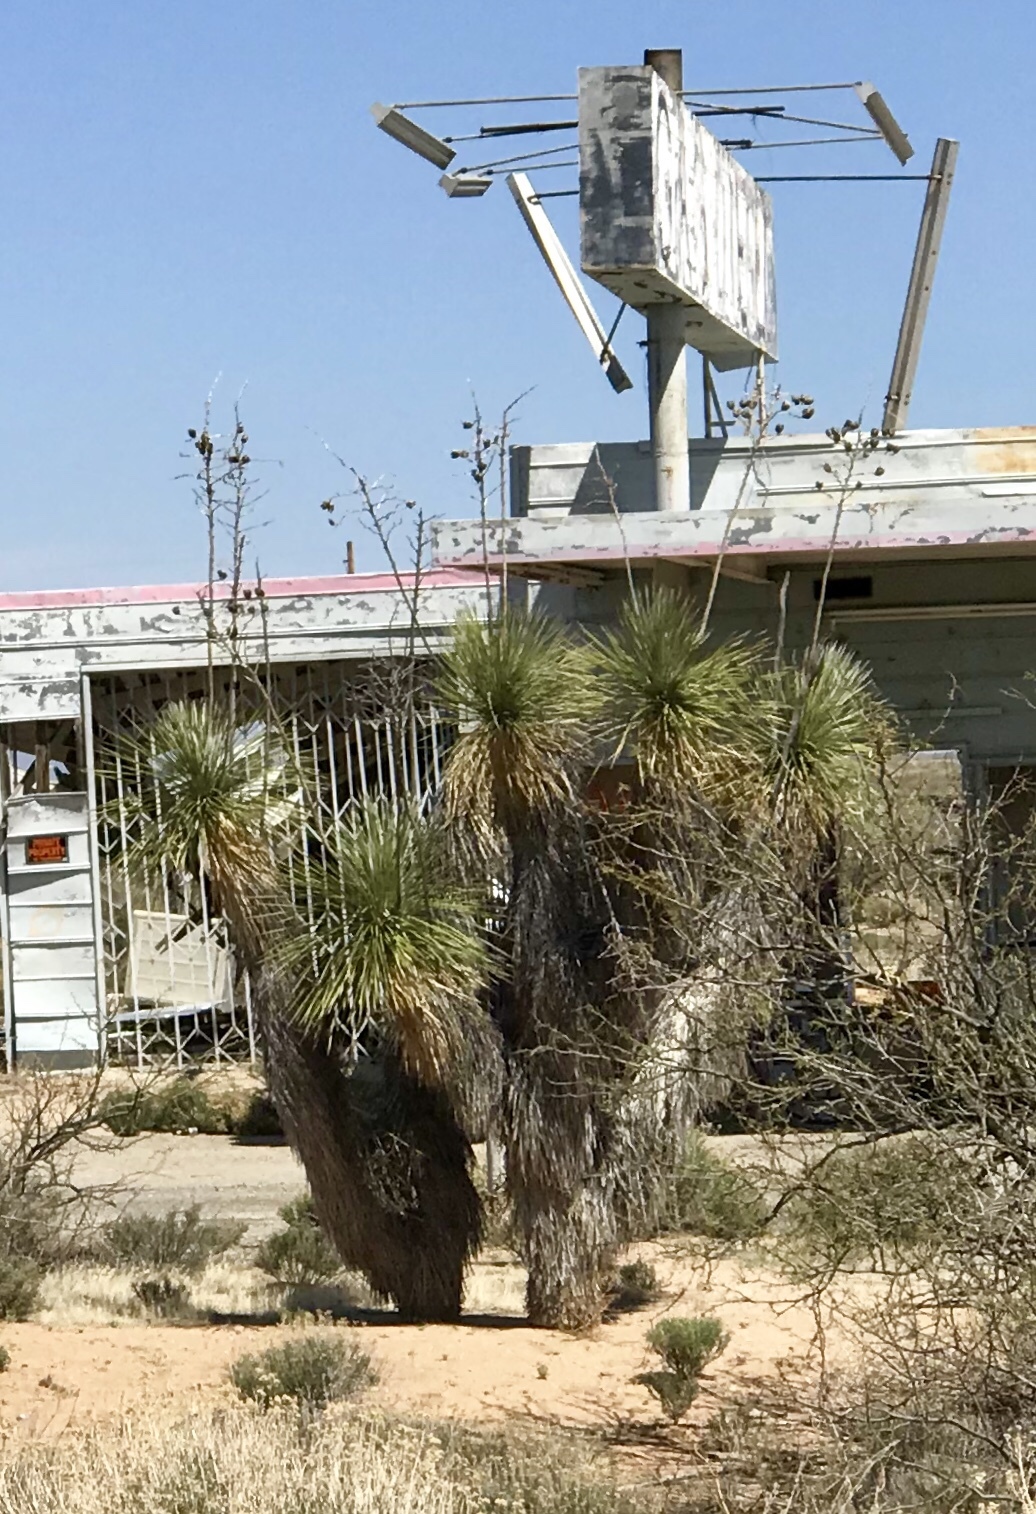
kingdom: Plantae
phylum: Tracheophyta
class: Liliopsida
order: Asparagales
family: Asparagaceae
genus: Yucca
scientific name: Yucca elata
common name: Palmella
